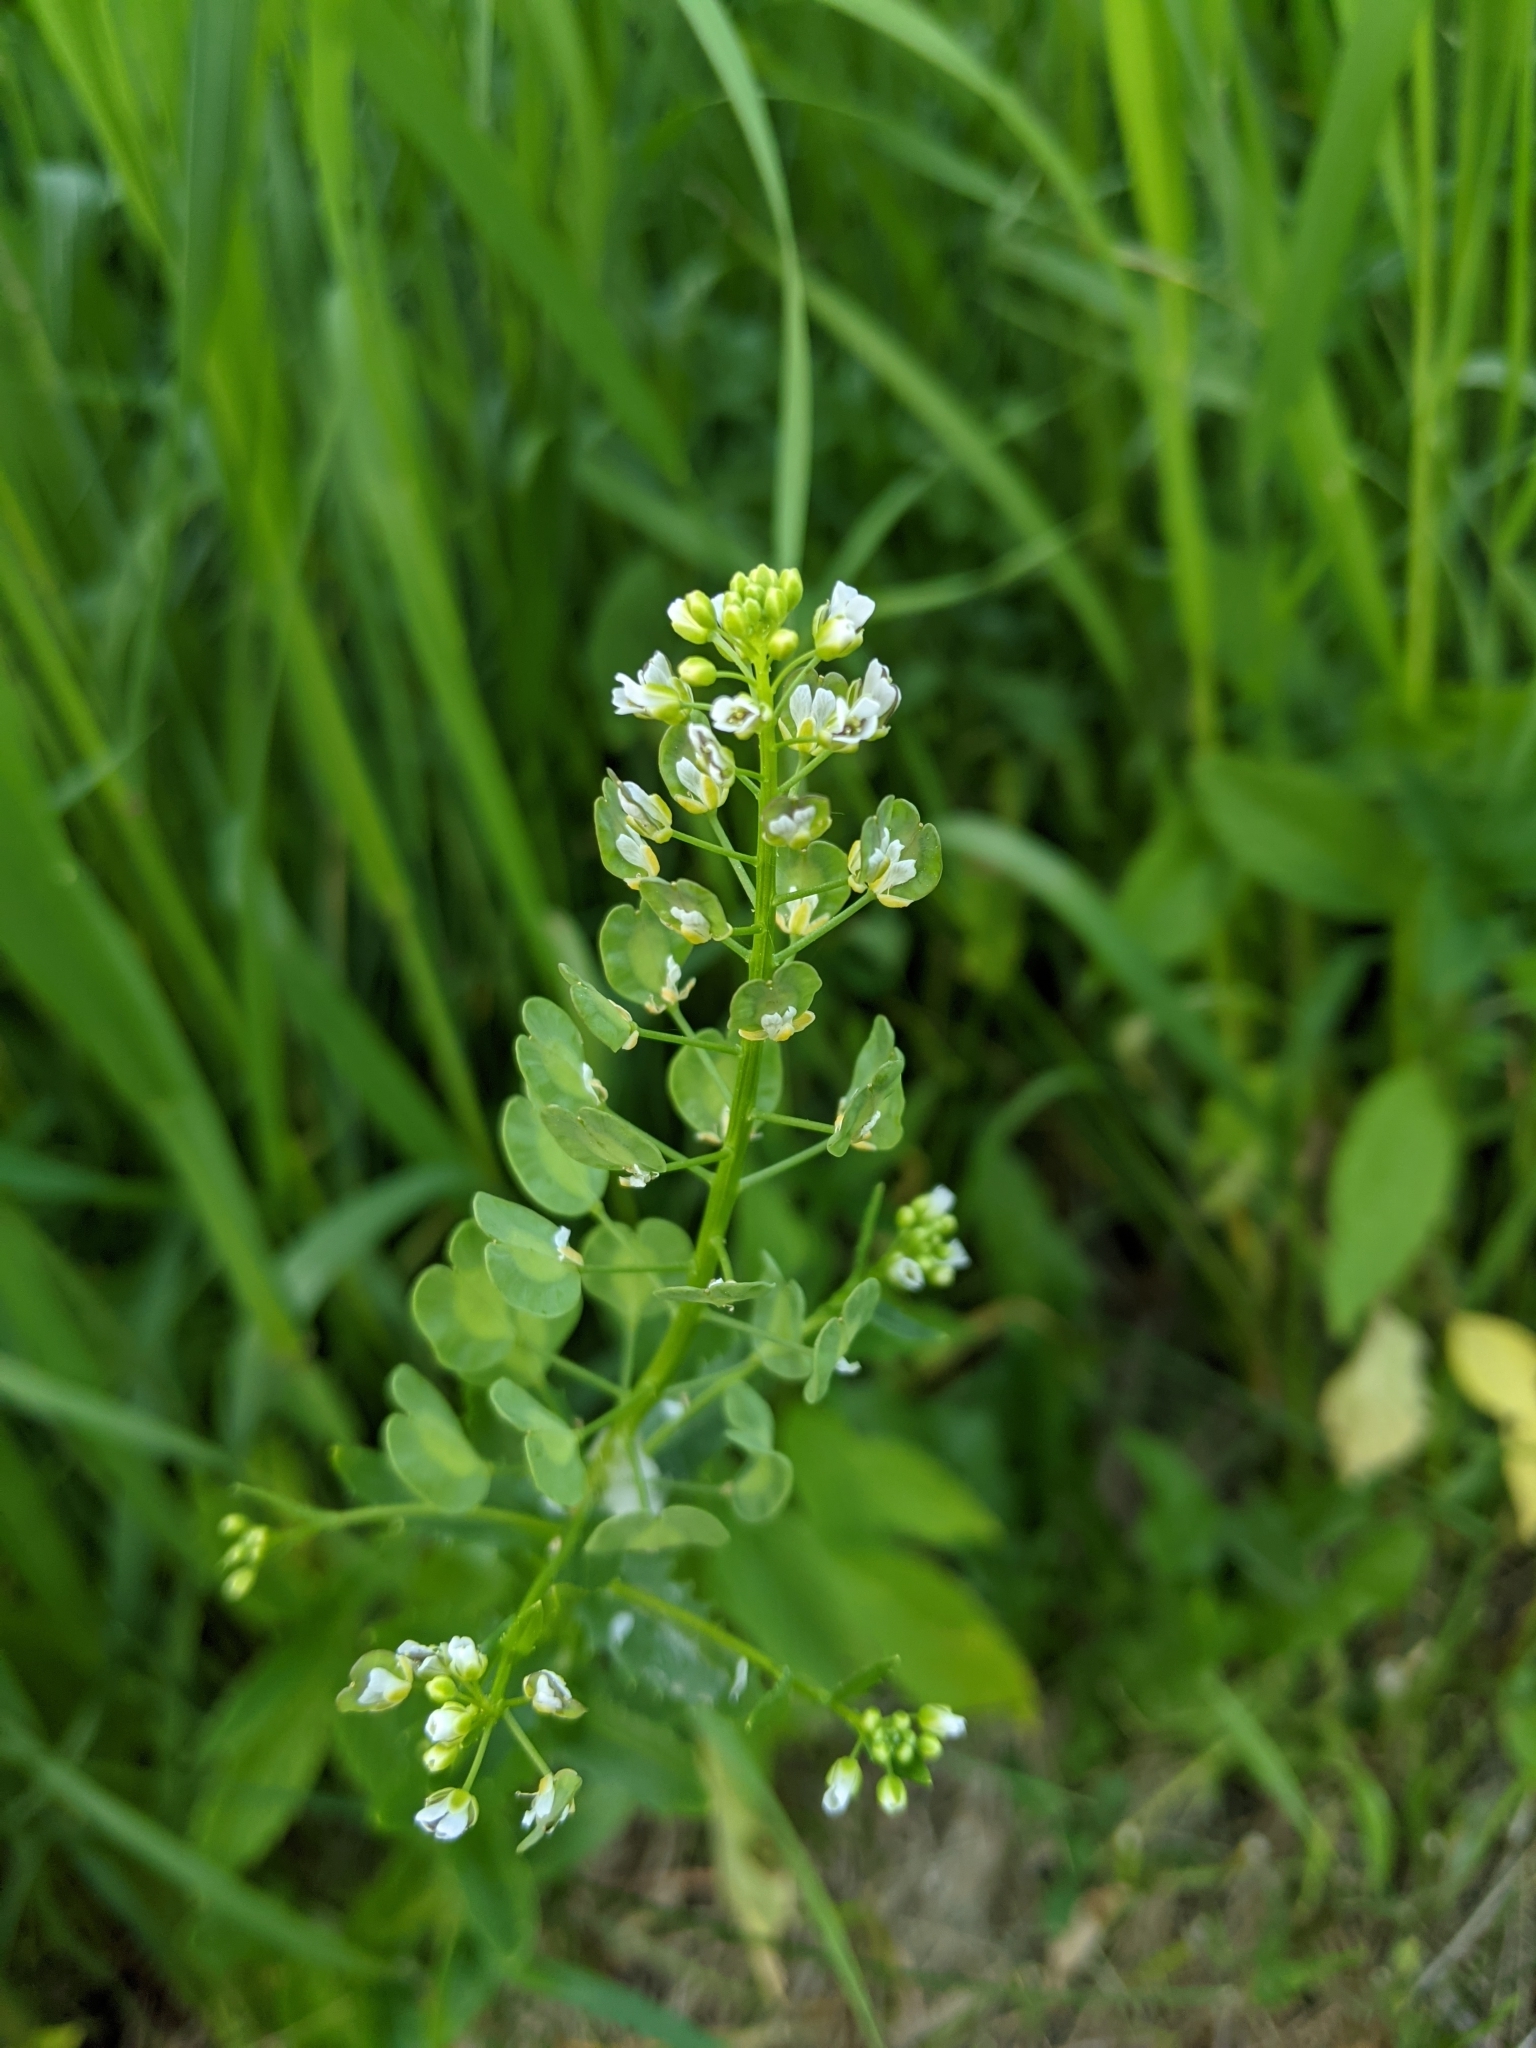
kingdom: Plantae
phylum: Tracheophyta
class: Magnoliopsida
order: Brassicales
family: Brassicaceae
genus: Thlaspi
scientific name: Thlaspi arvense
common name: Field pennycress
